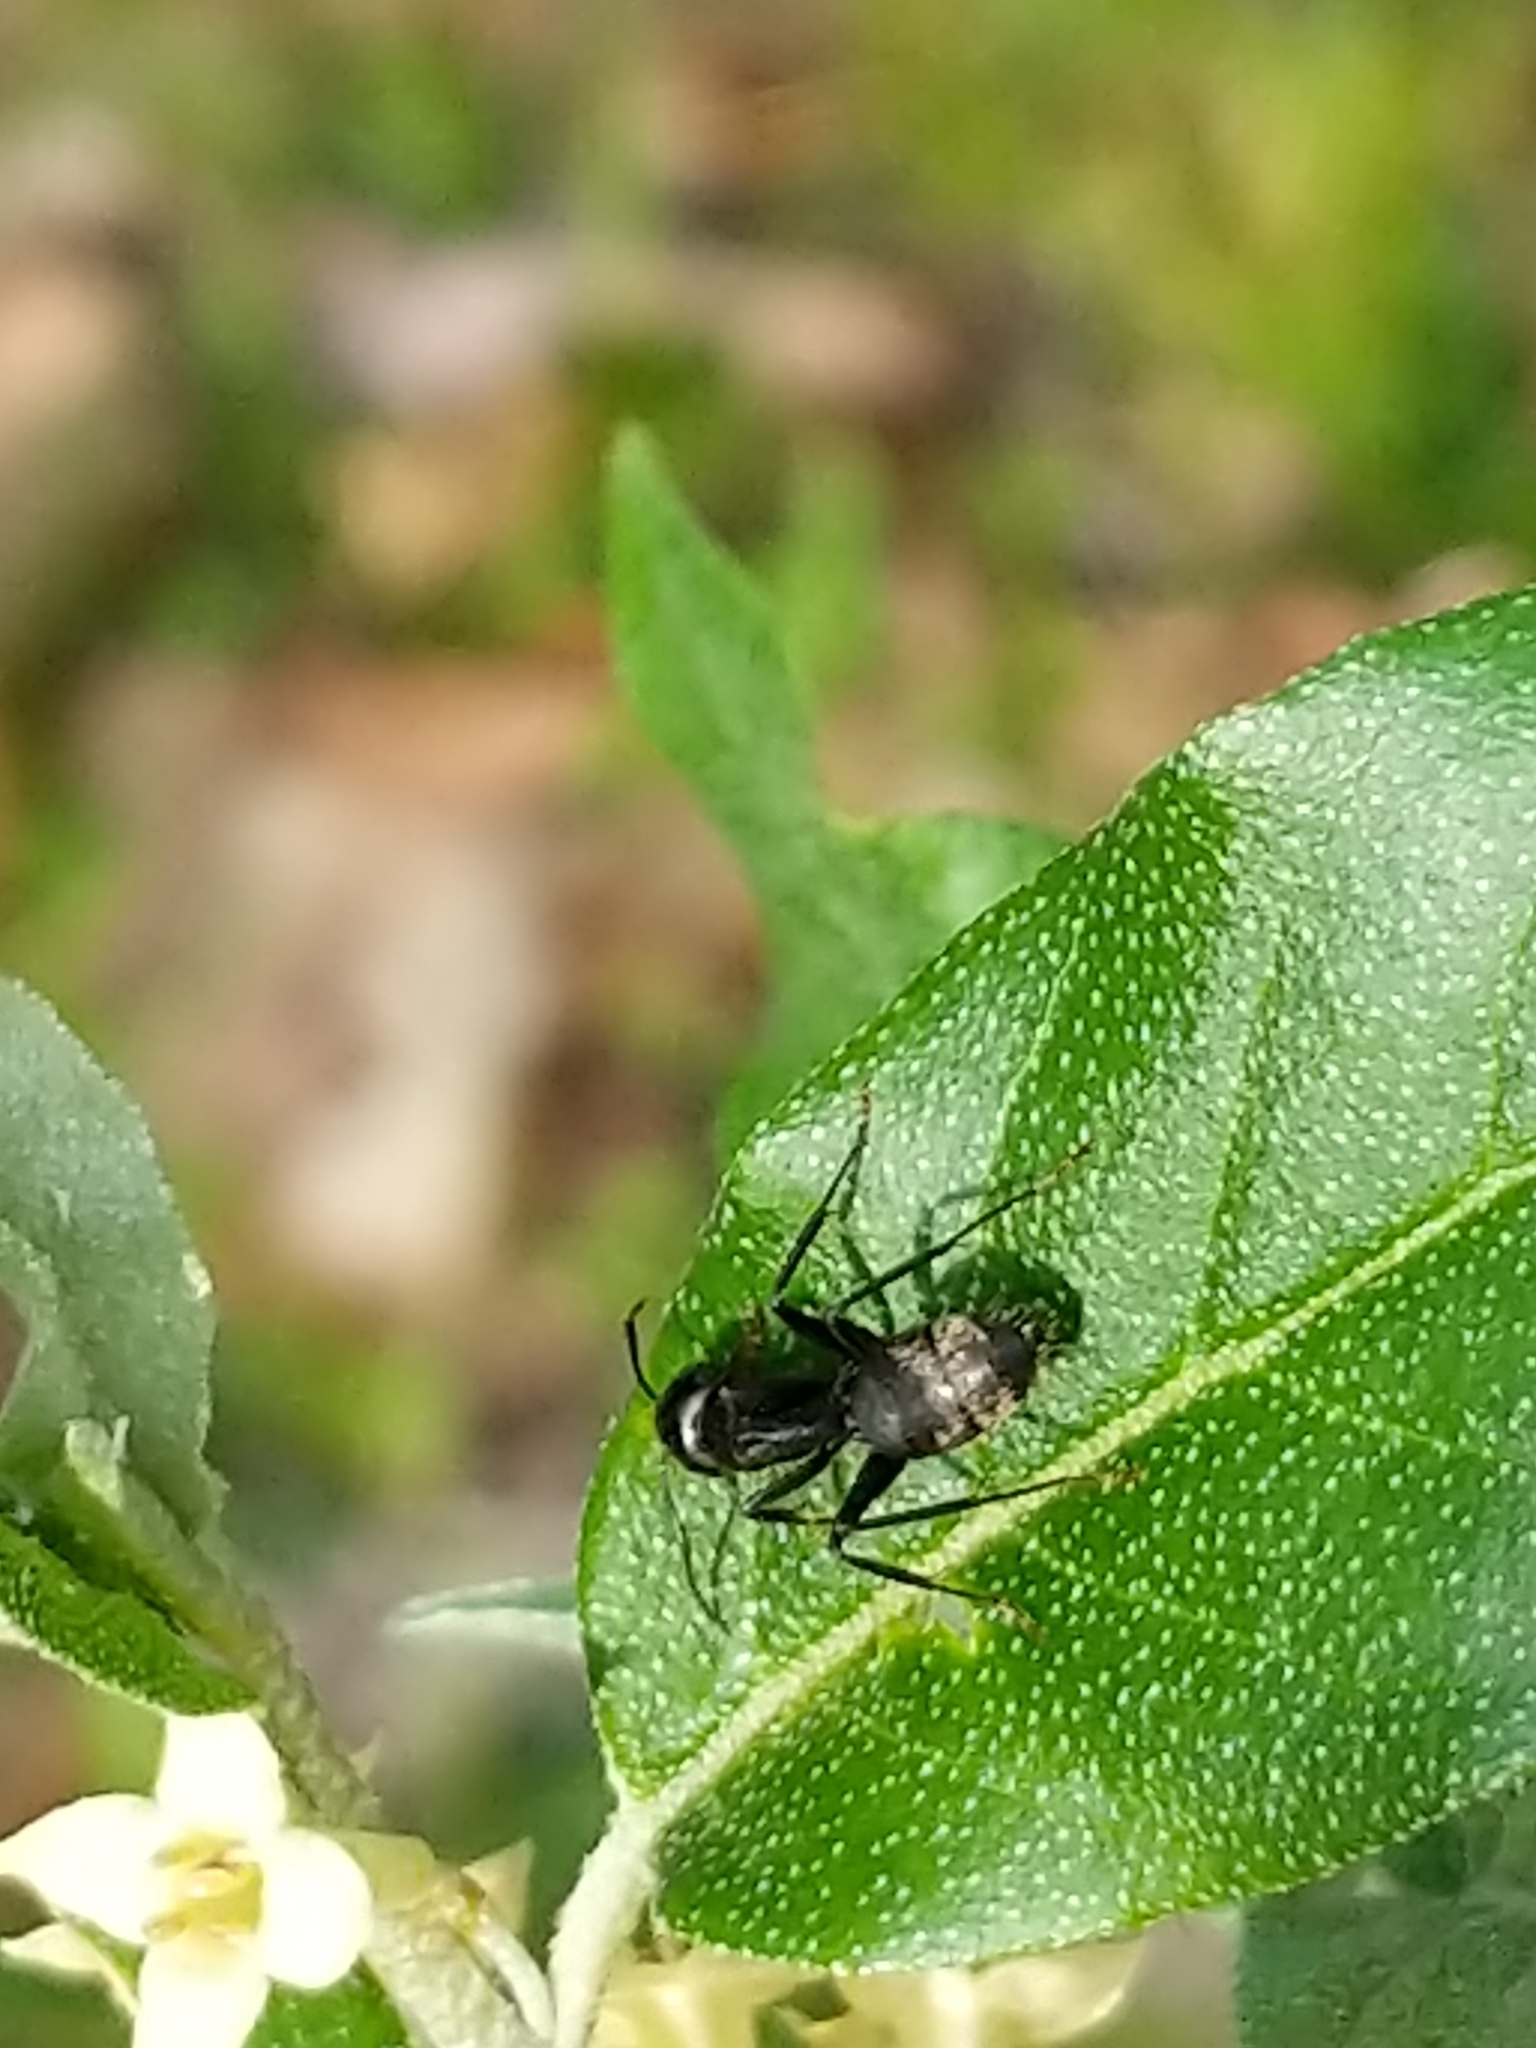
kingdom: Animalia
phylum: Arthropoda
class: Insecta
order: Hymenoptera
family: Formicidae
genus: Camponotus
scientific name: Camponotus pennsylvanicus
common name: Black carpenter ant
